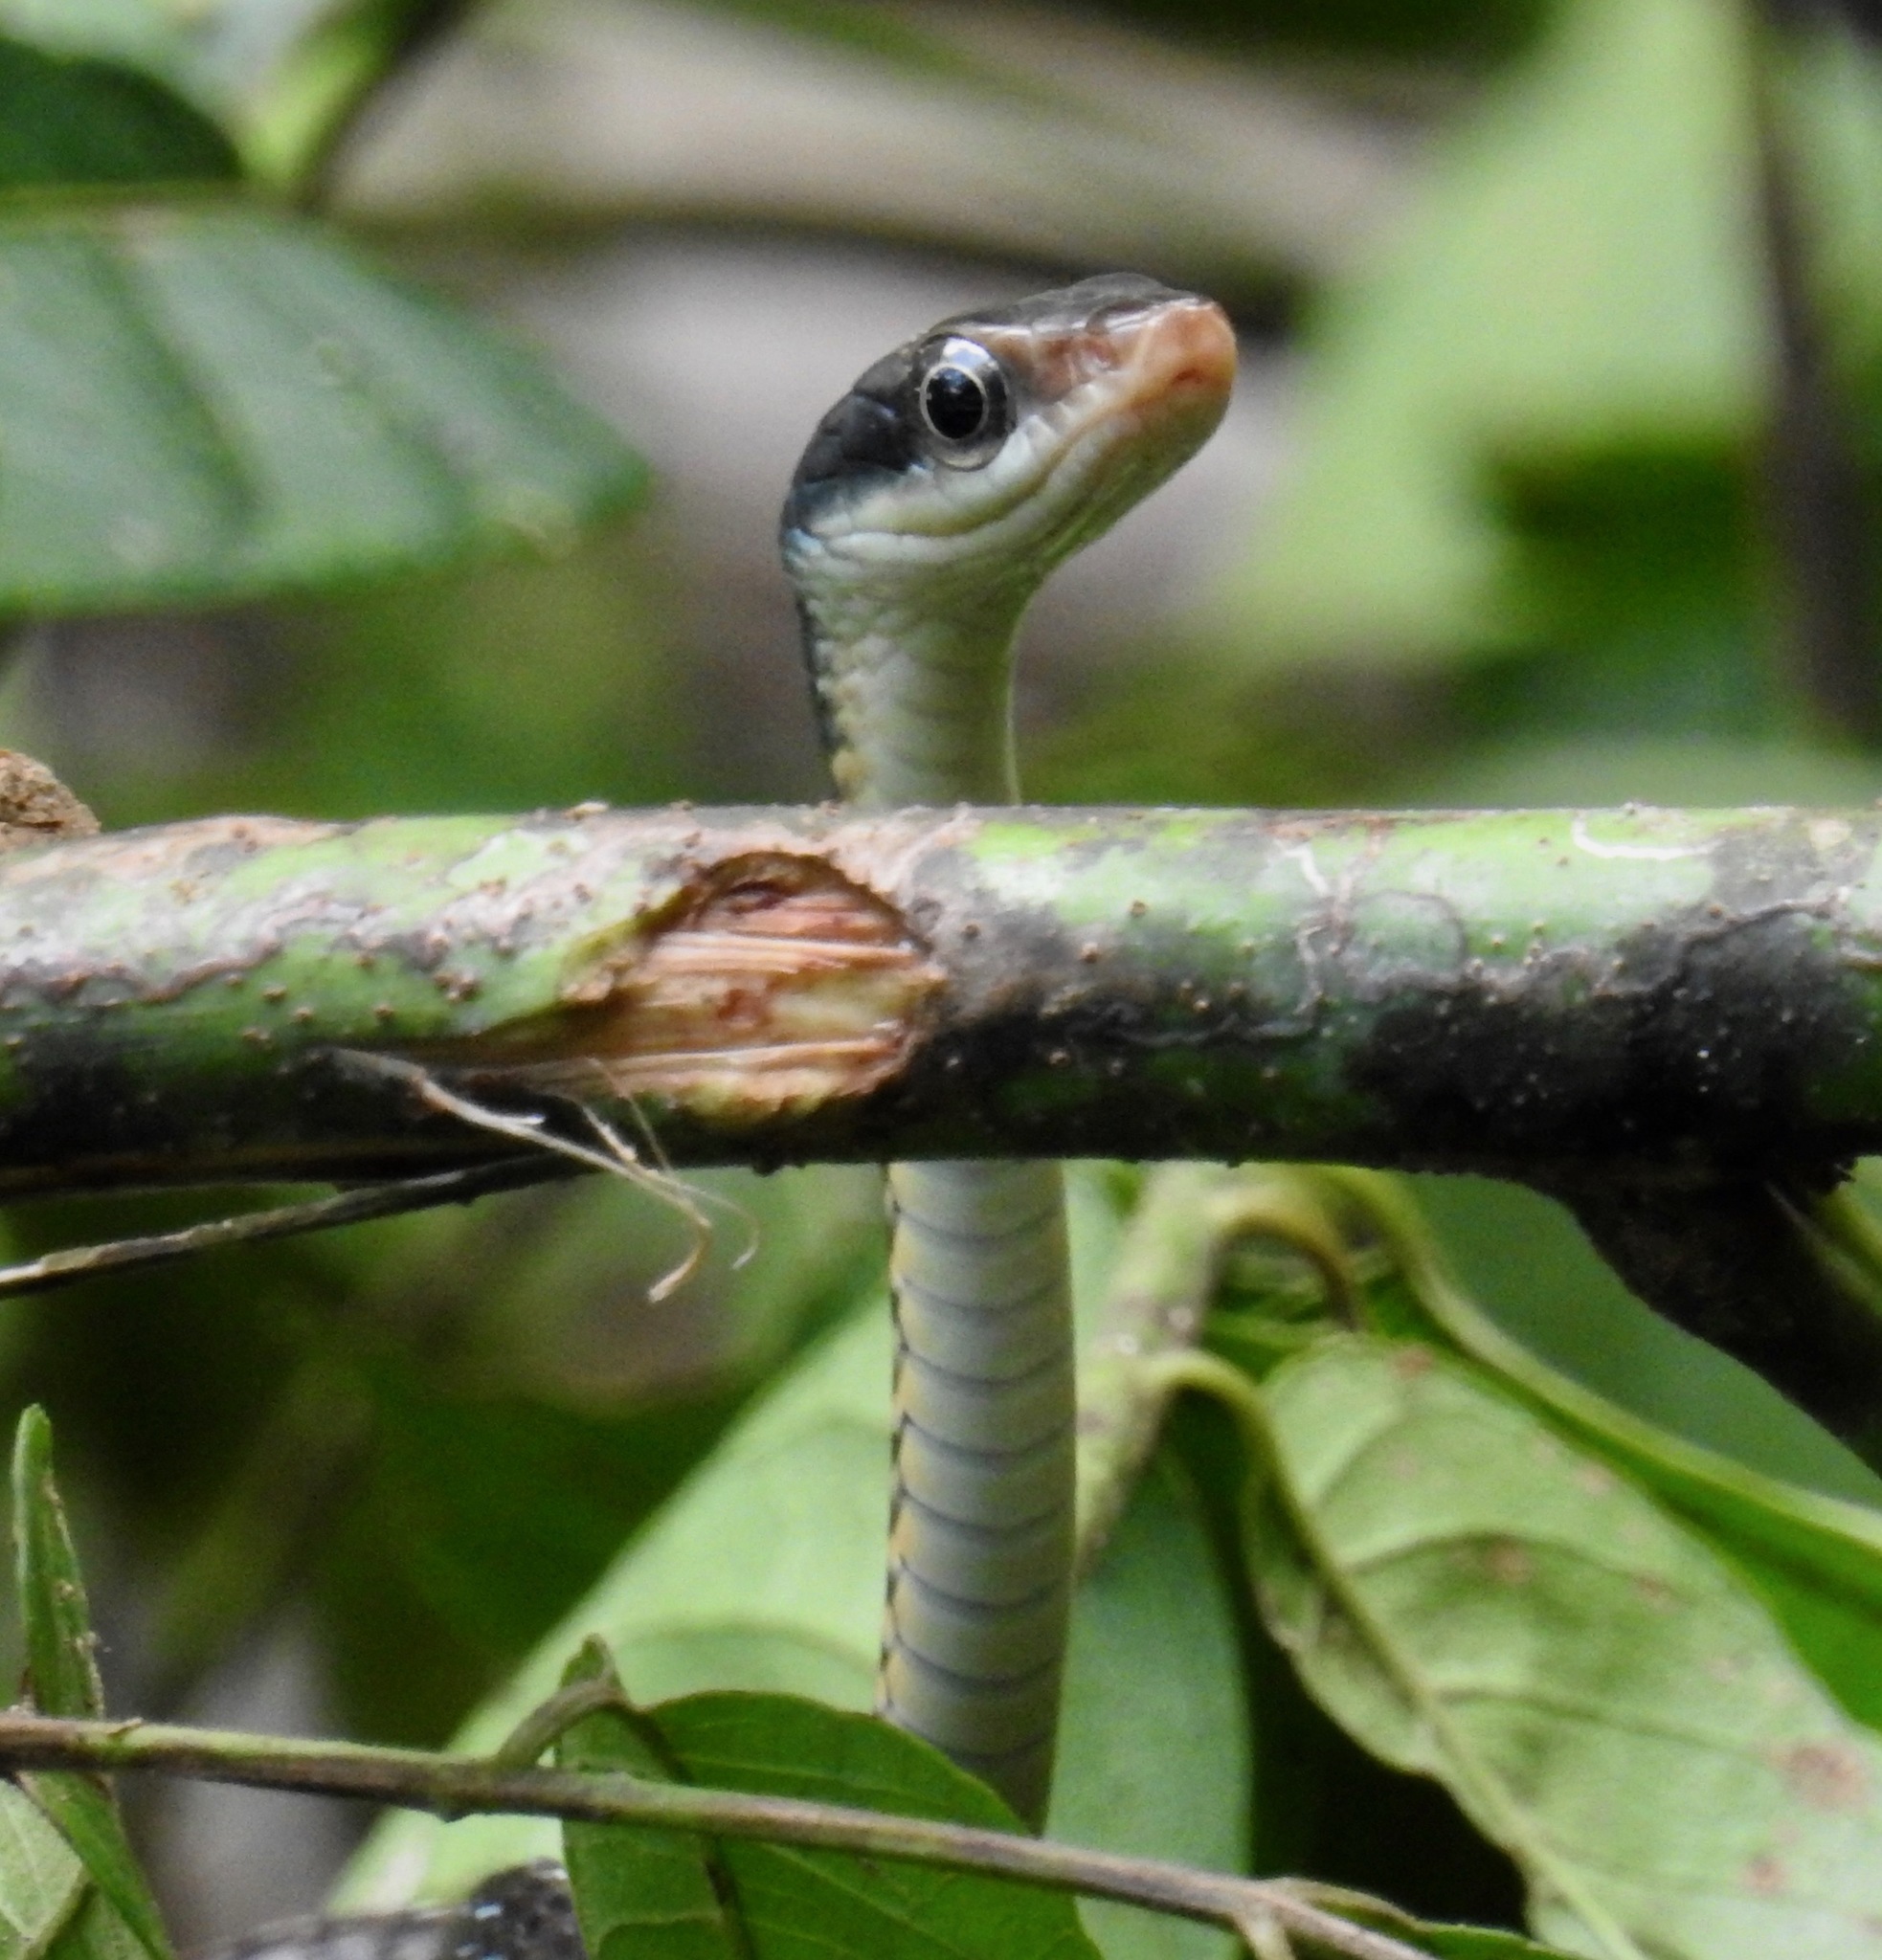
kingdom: Animalia
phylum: Chordata
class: Squamata
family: Colubridae
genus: Dendrophidion
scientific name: Dendrophidion apharocybe
